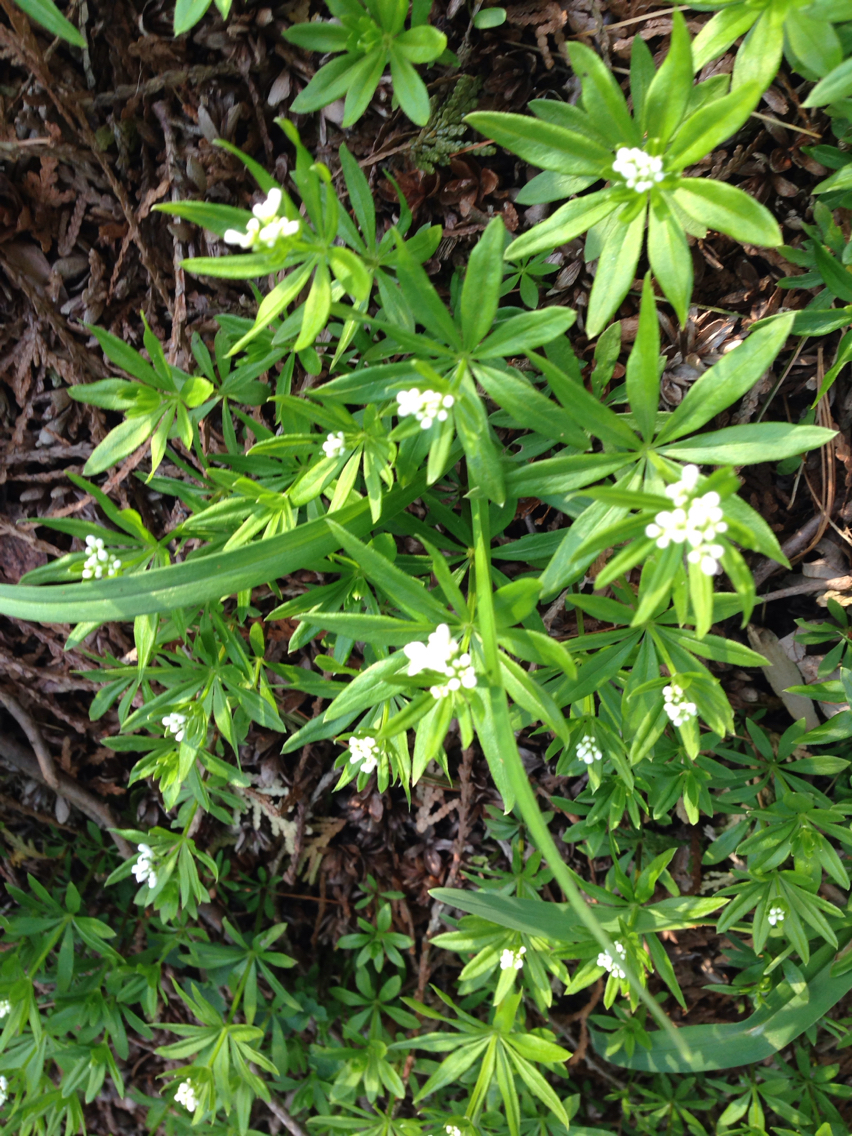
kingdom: Plantae
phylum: Tracheophyta
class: Magnoliopsida
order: Gentianales
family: Rubiaceae
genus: Galium
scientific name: Galium odoratum
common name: Sweet woodruff
